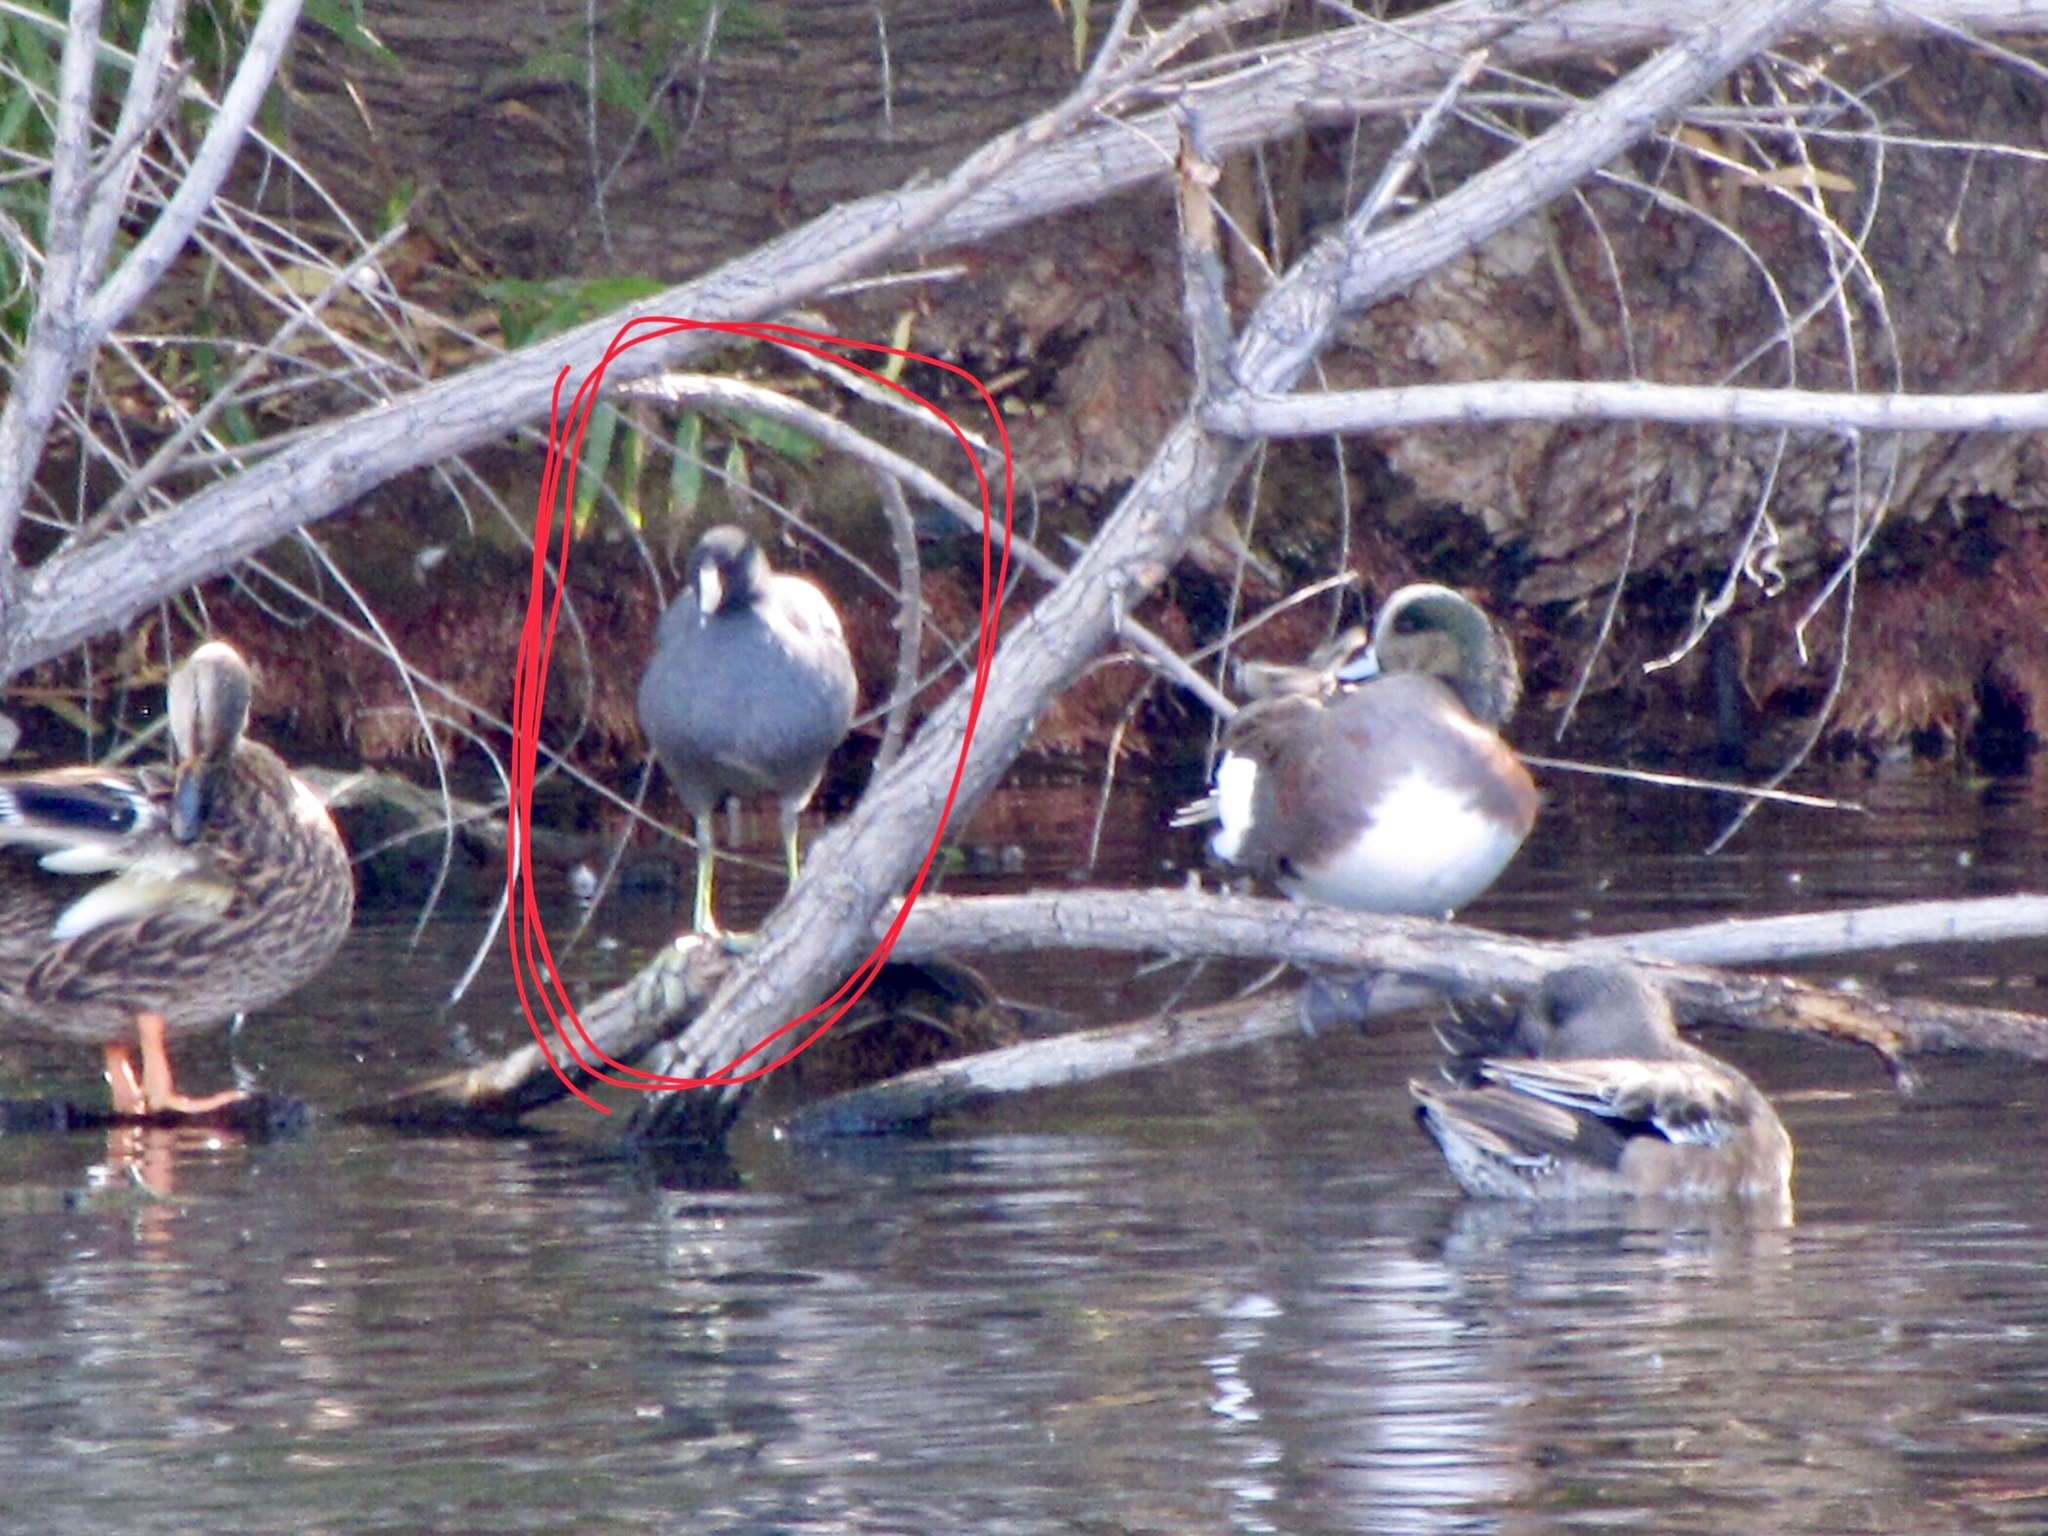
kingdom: Animalia
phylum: Chordata
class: Aves
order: Anseriformes
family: Anatidae
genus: Mareca
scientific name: Mareca americana
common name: American wigeon
